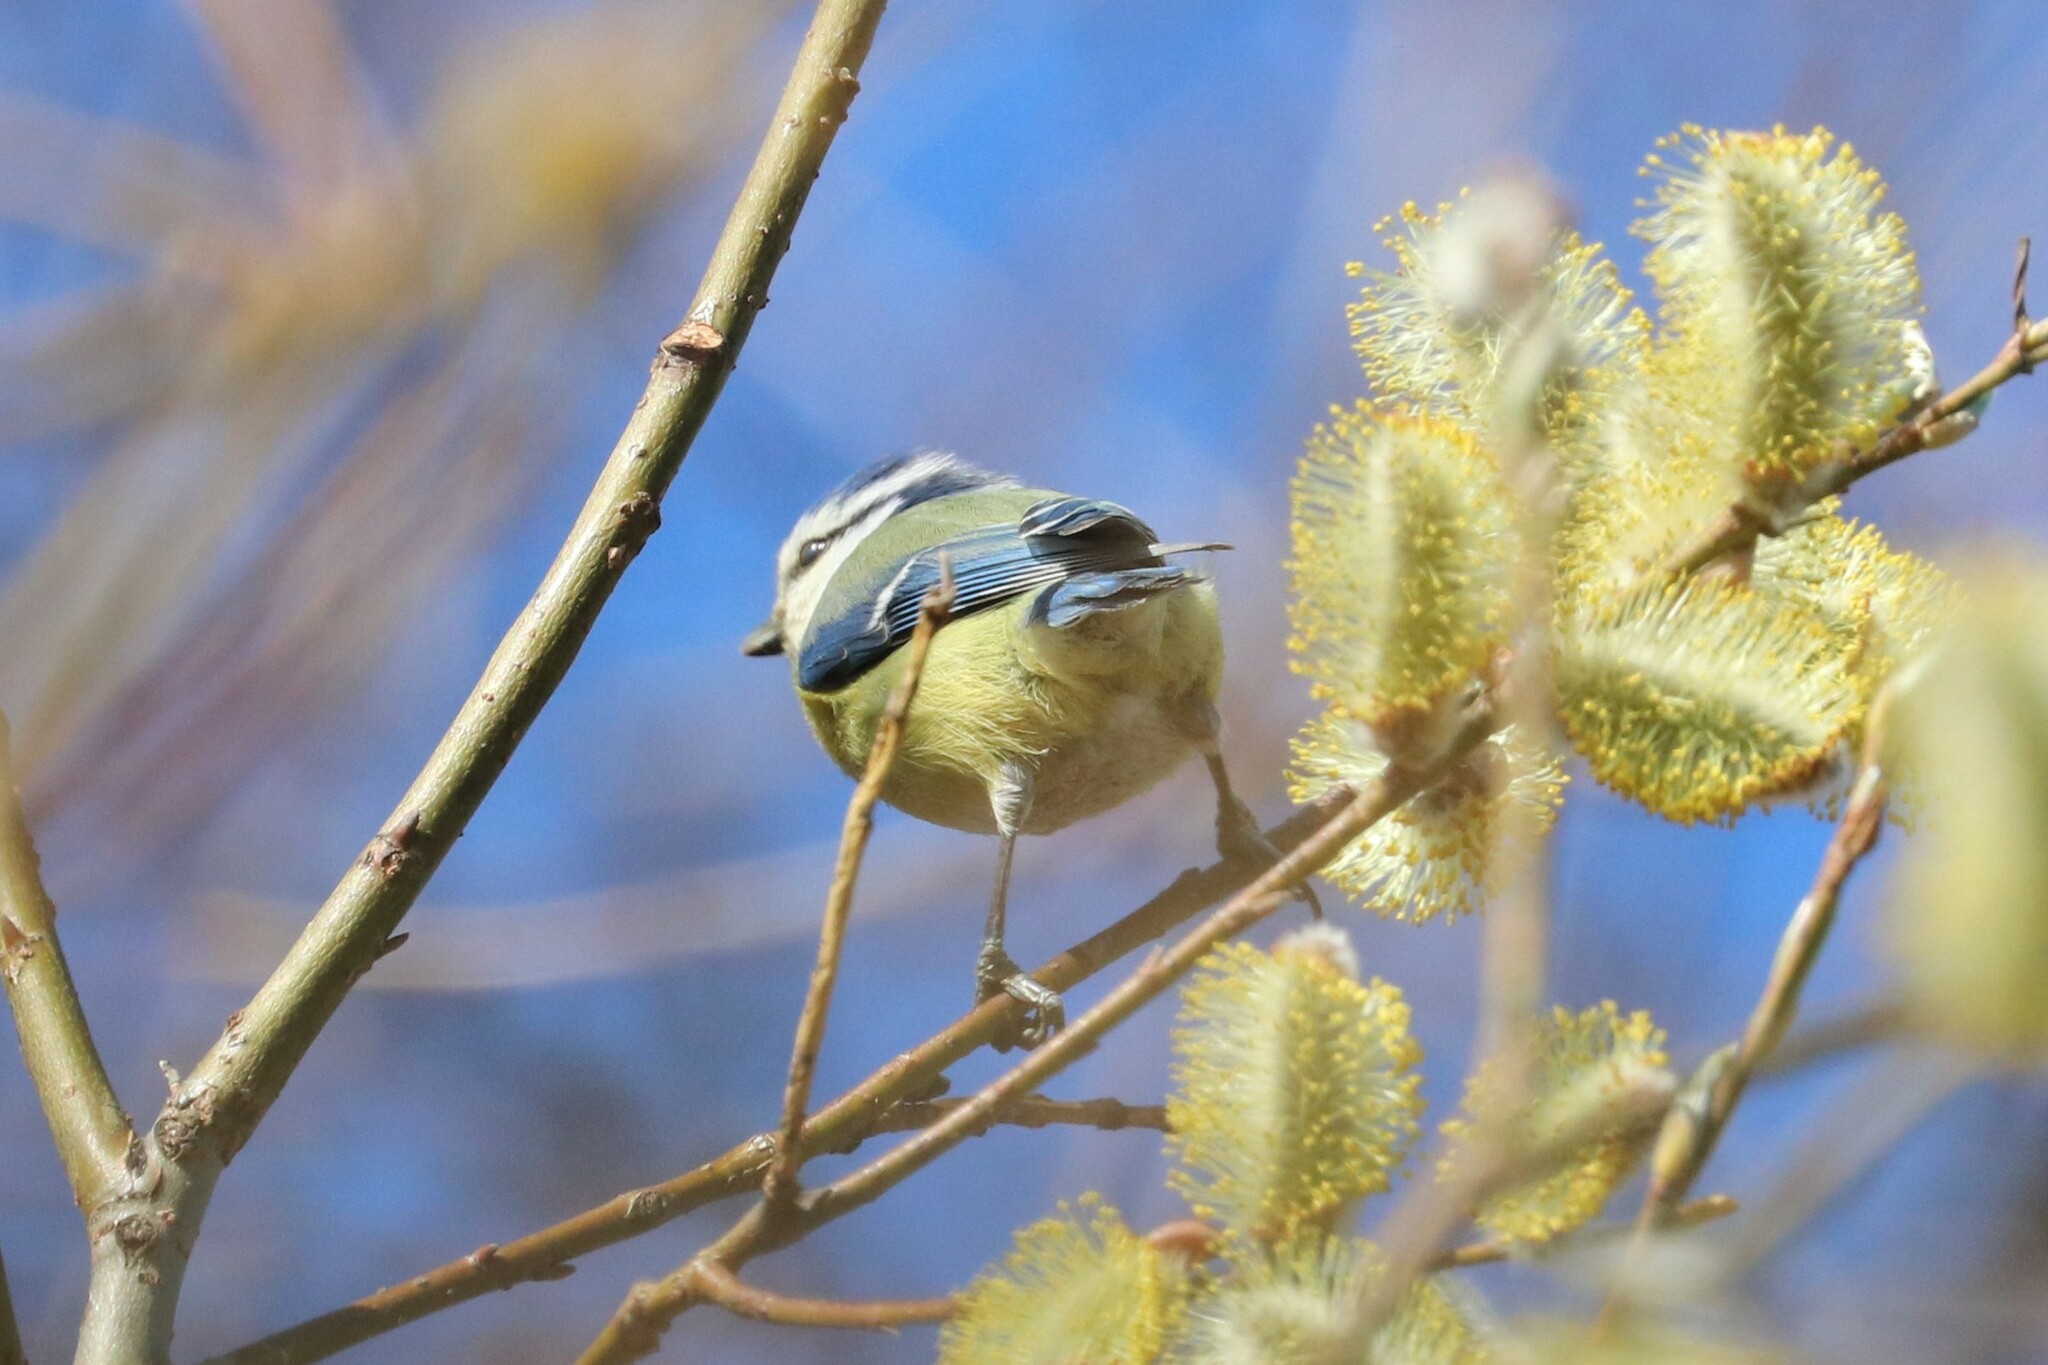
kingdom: Animalia
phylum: Chordata
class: Aves
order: Passeriformes
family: Paridae
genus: Cyanistes
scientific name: Cyanistes caeruleus
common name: Eurasian blue tit
